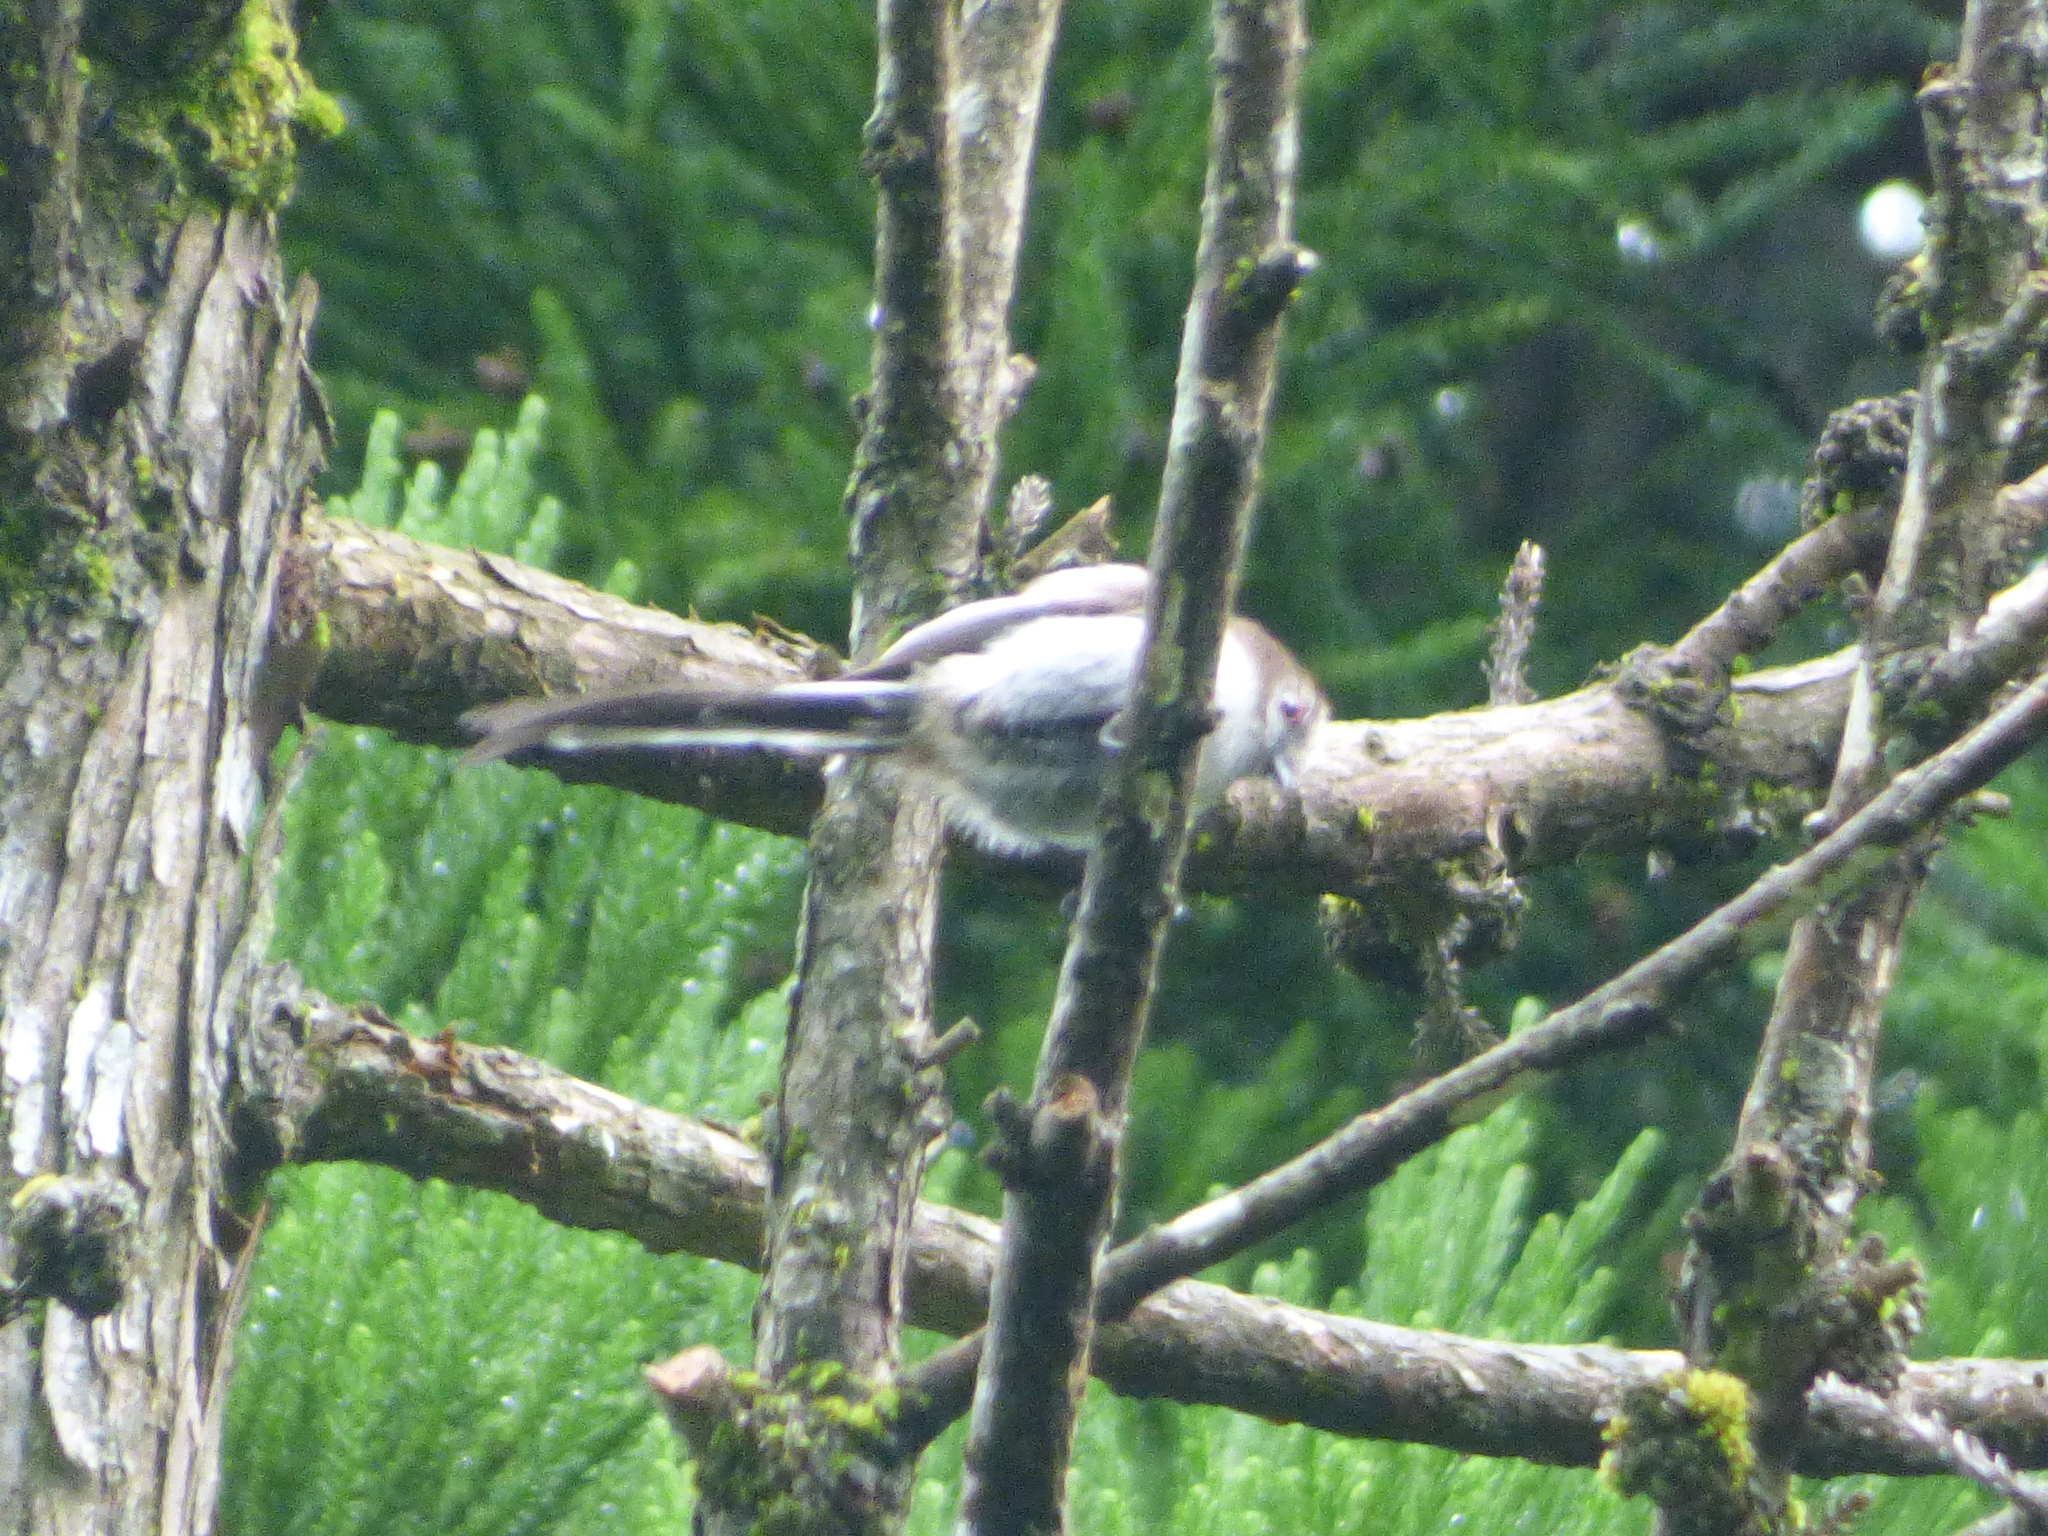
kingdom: Animalia
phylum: Chordata
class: Aves
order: Passeriformes
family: Aegithalidae
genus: Aegithalos
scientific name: Aegithalos caudatus
